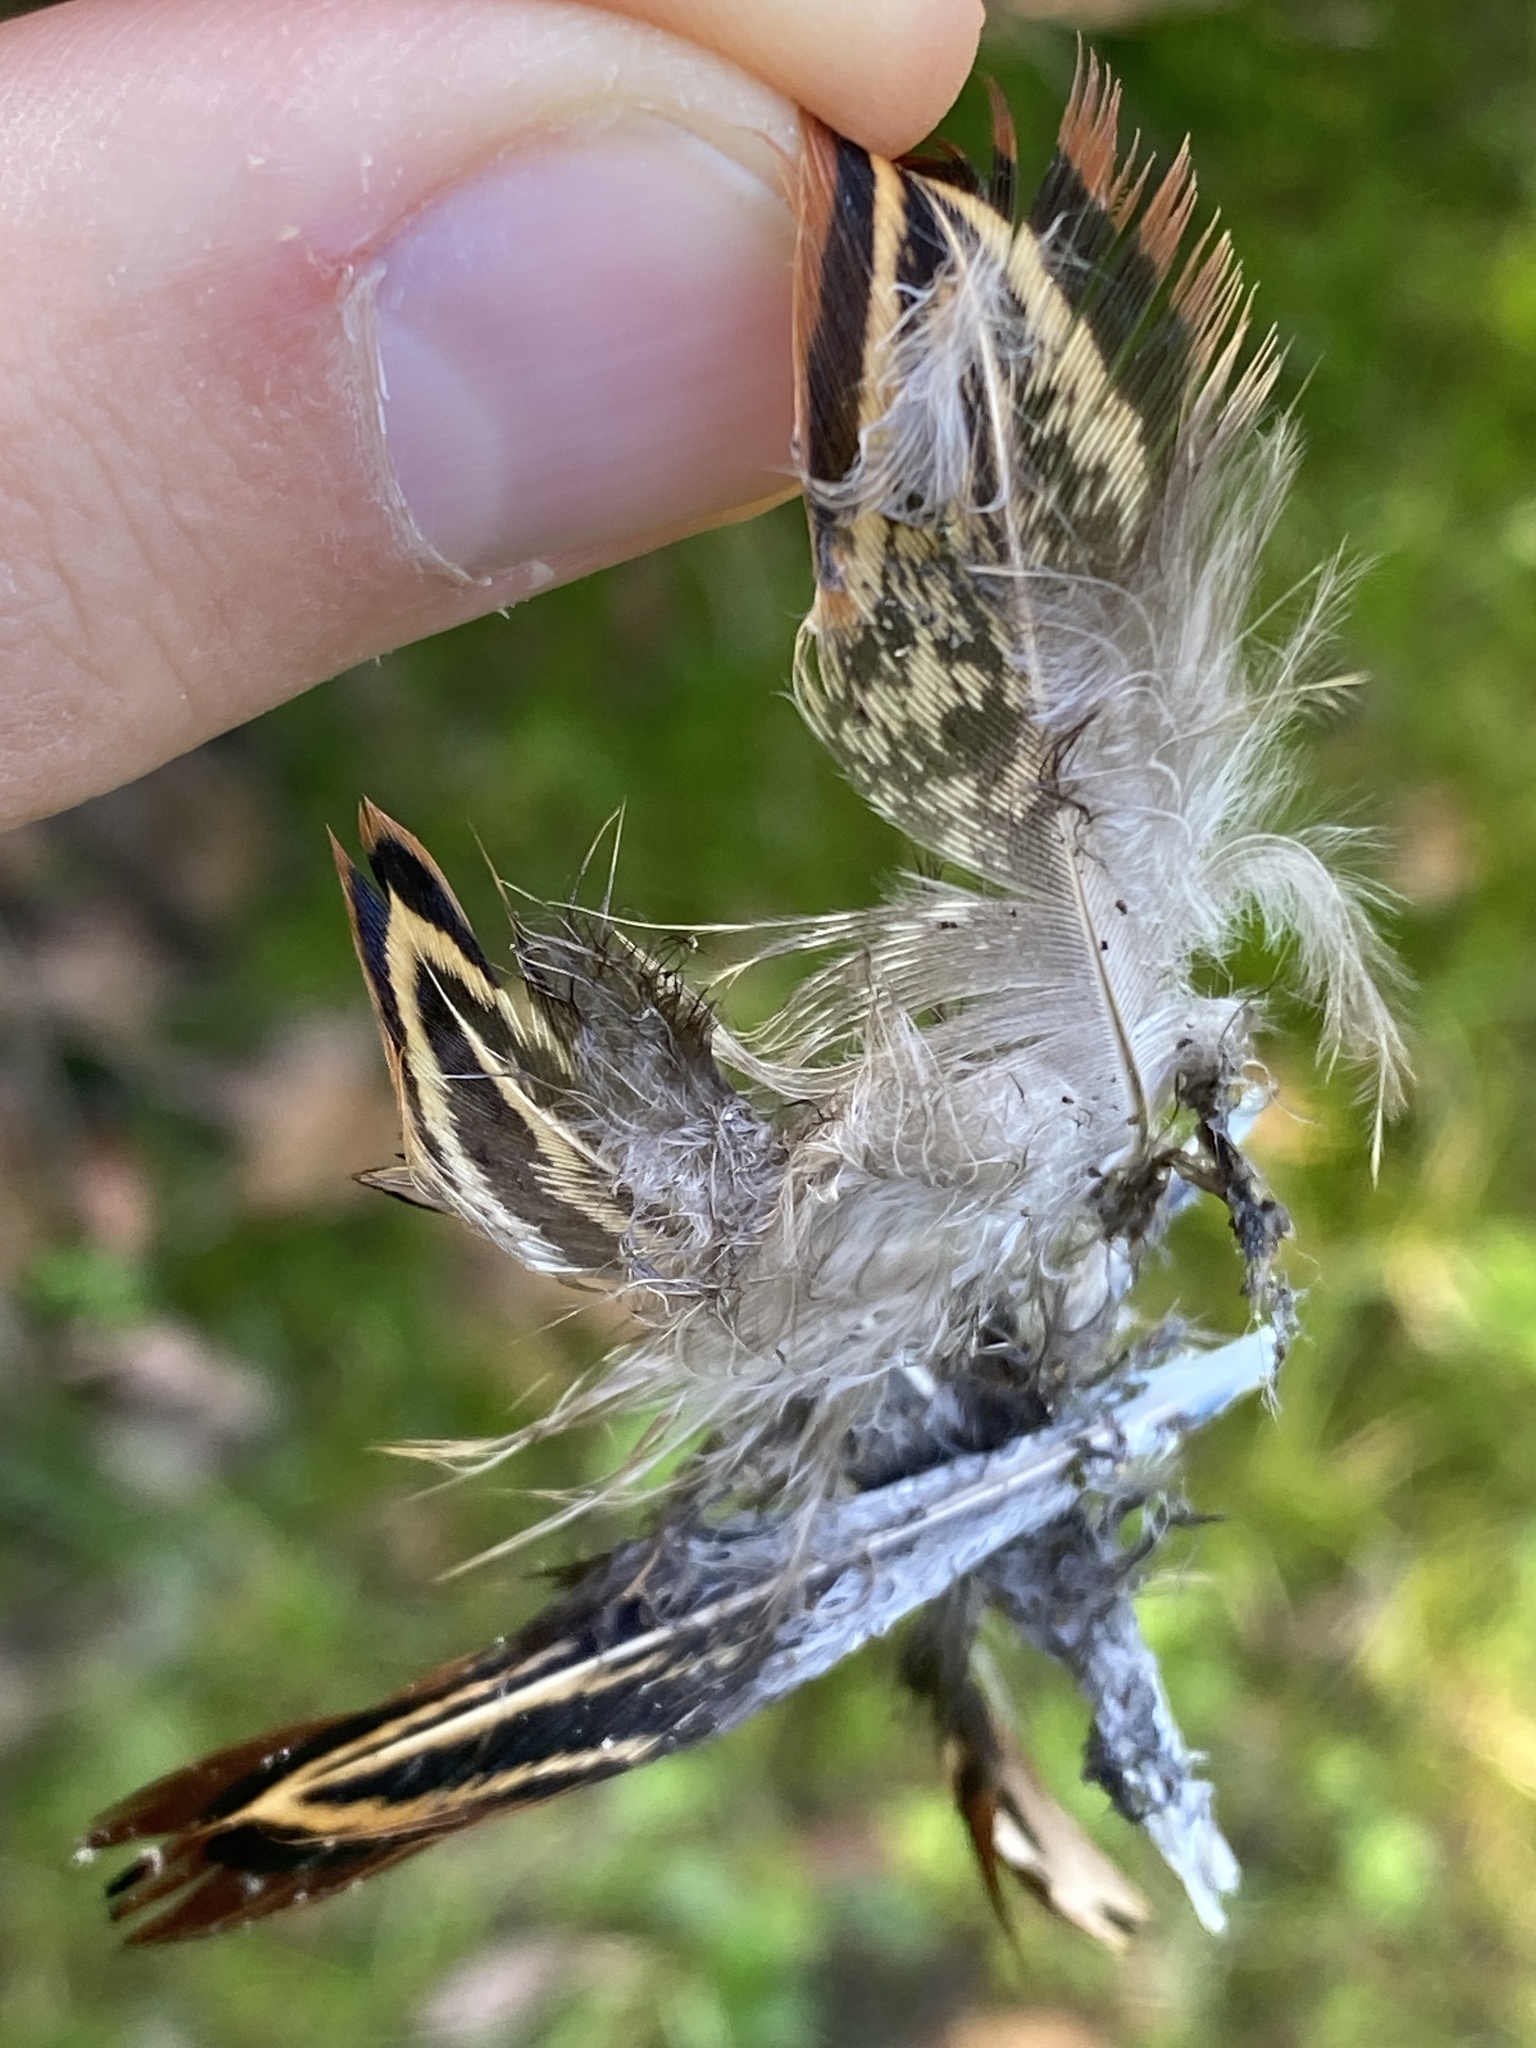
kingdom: Animalia
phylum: Chordata
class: Aves
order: Galliformes
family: Phasianidae
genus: Phasianus
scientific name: Phasianus colchicus
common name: Common pheasant
